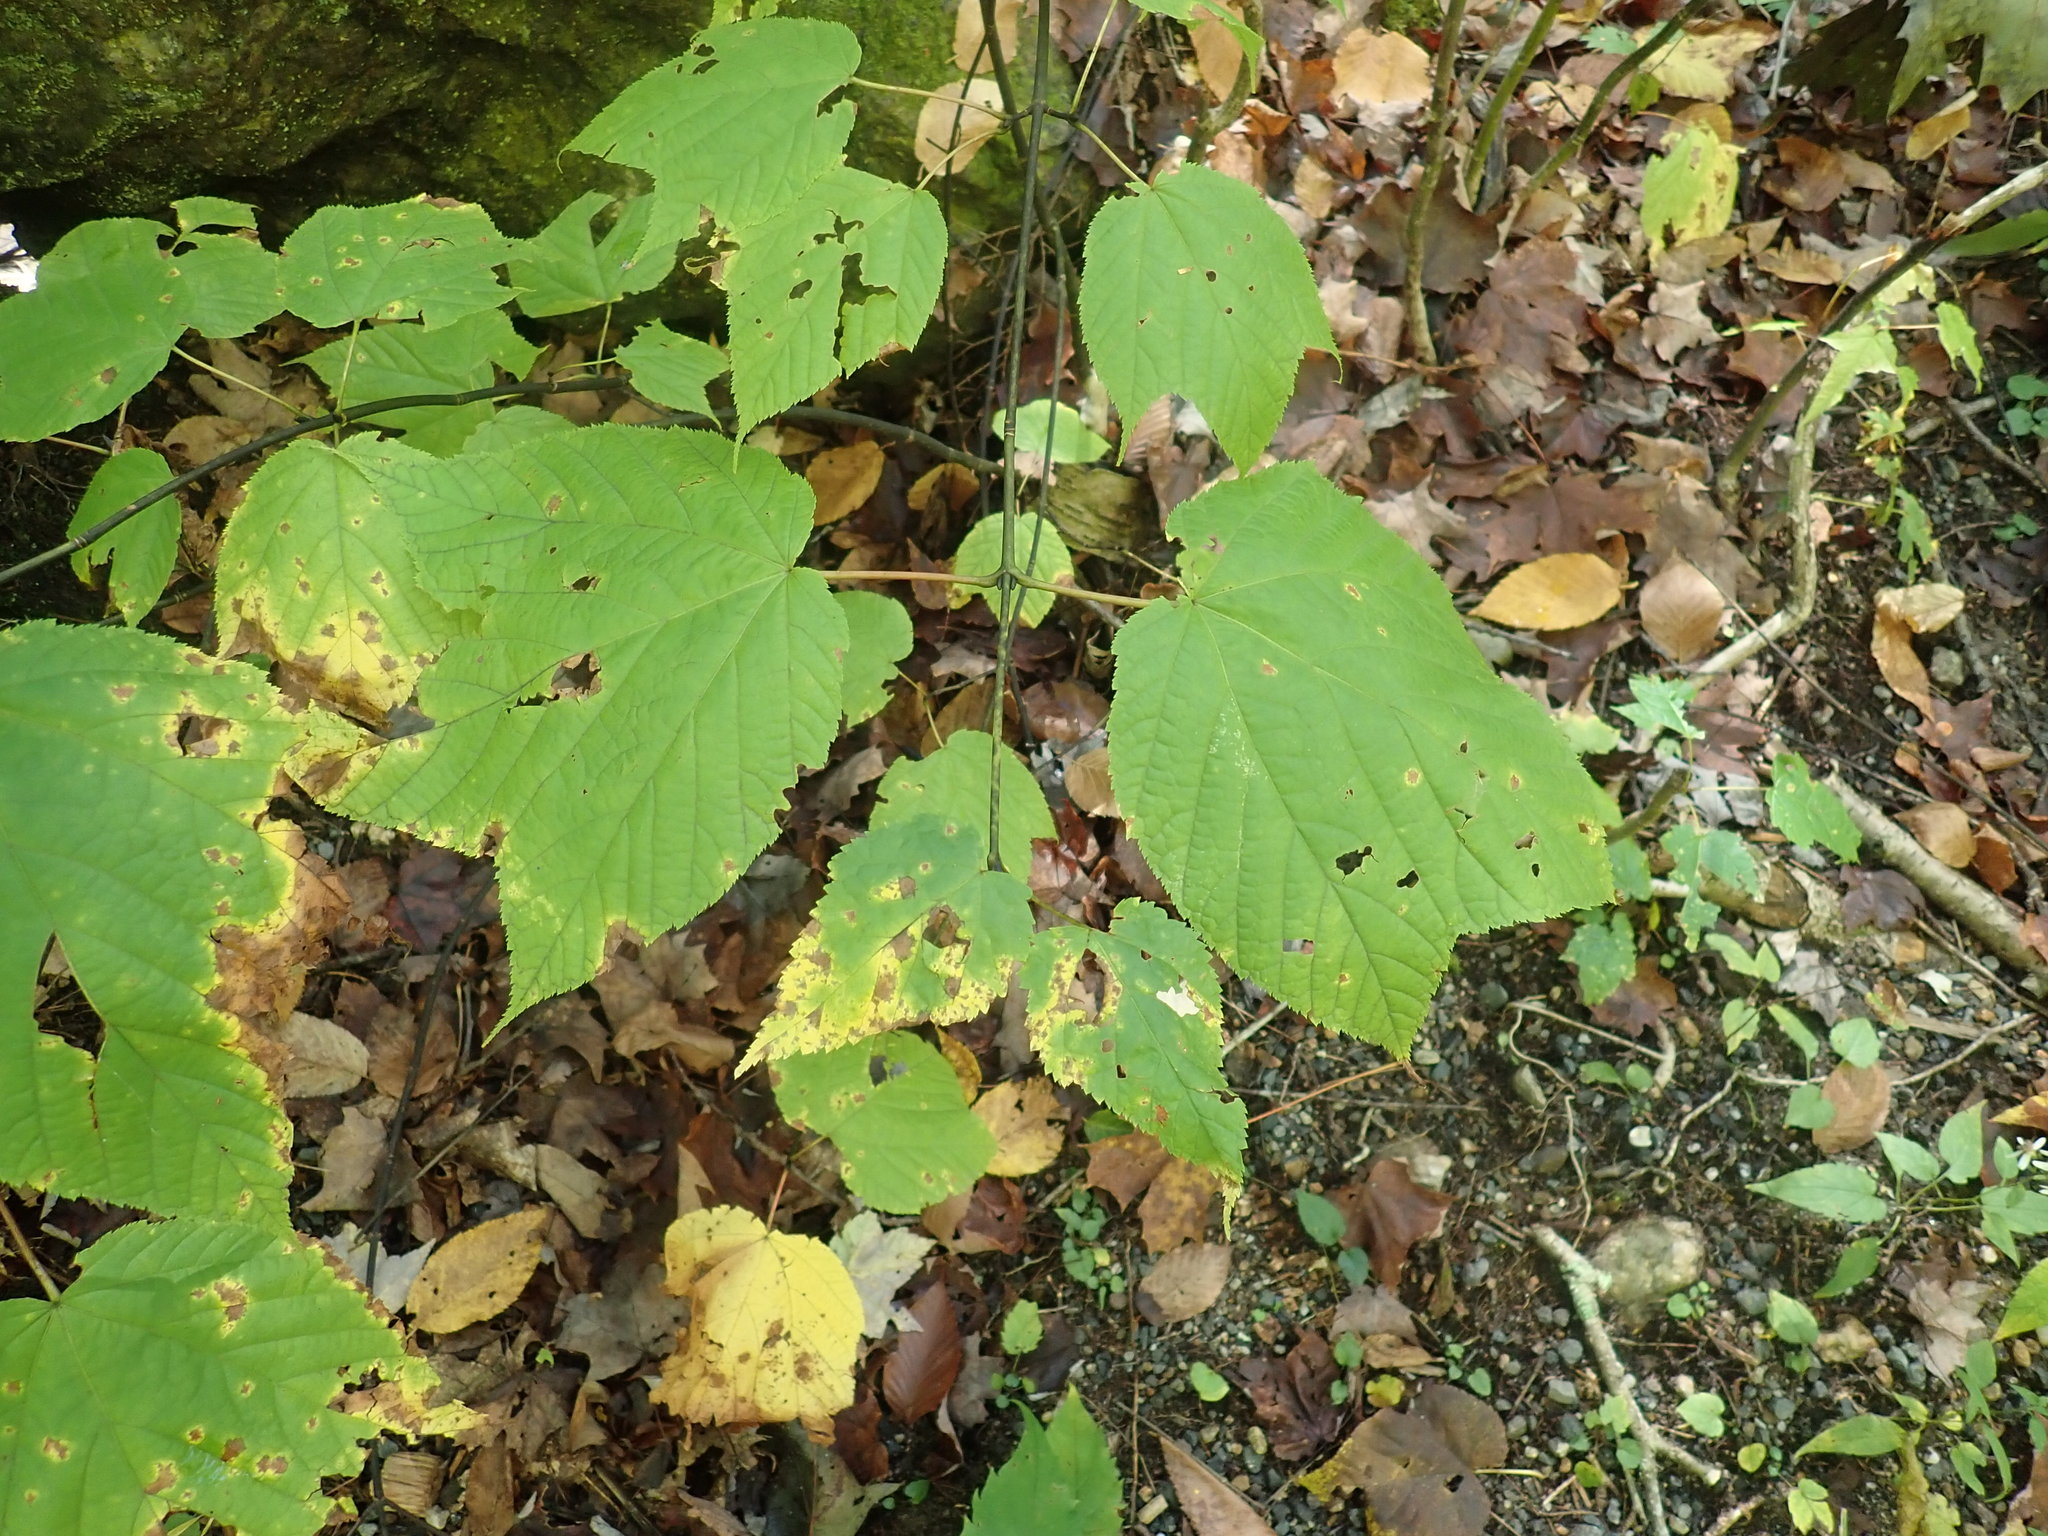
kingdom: Plantae
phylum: Tracheophyta
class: Magnoliopsida
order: Sapindales
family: Sapindaceae
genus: Acer
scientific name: Acer pensylvanicum
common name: Moosewood
